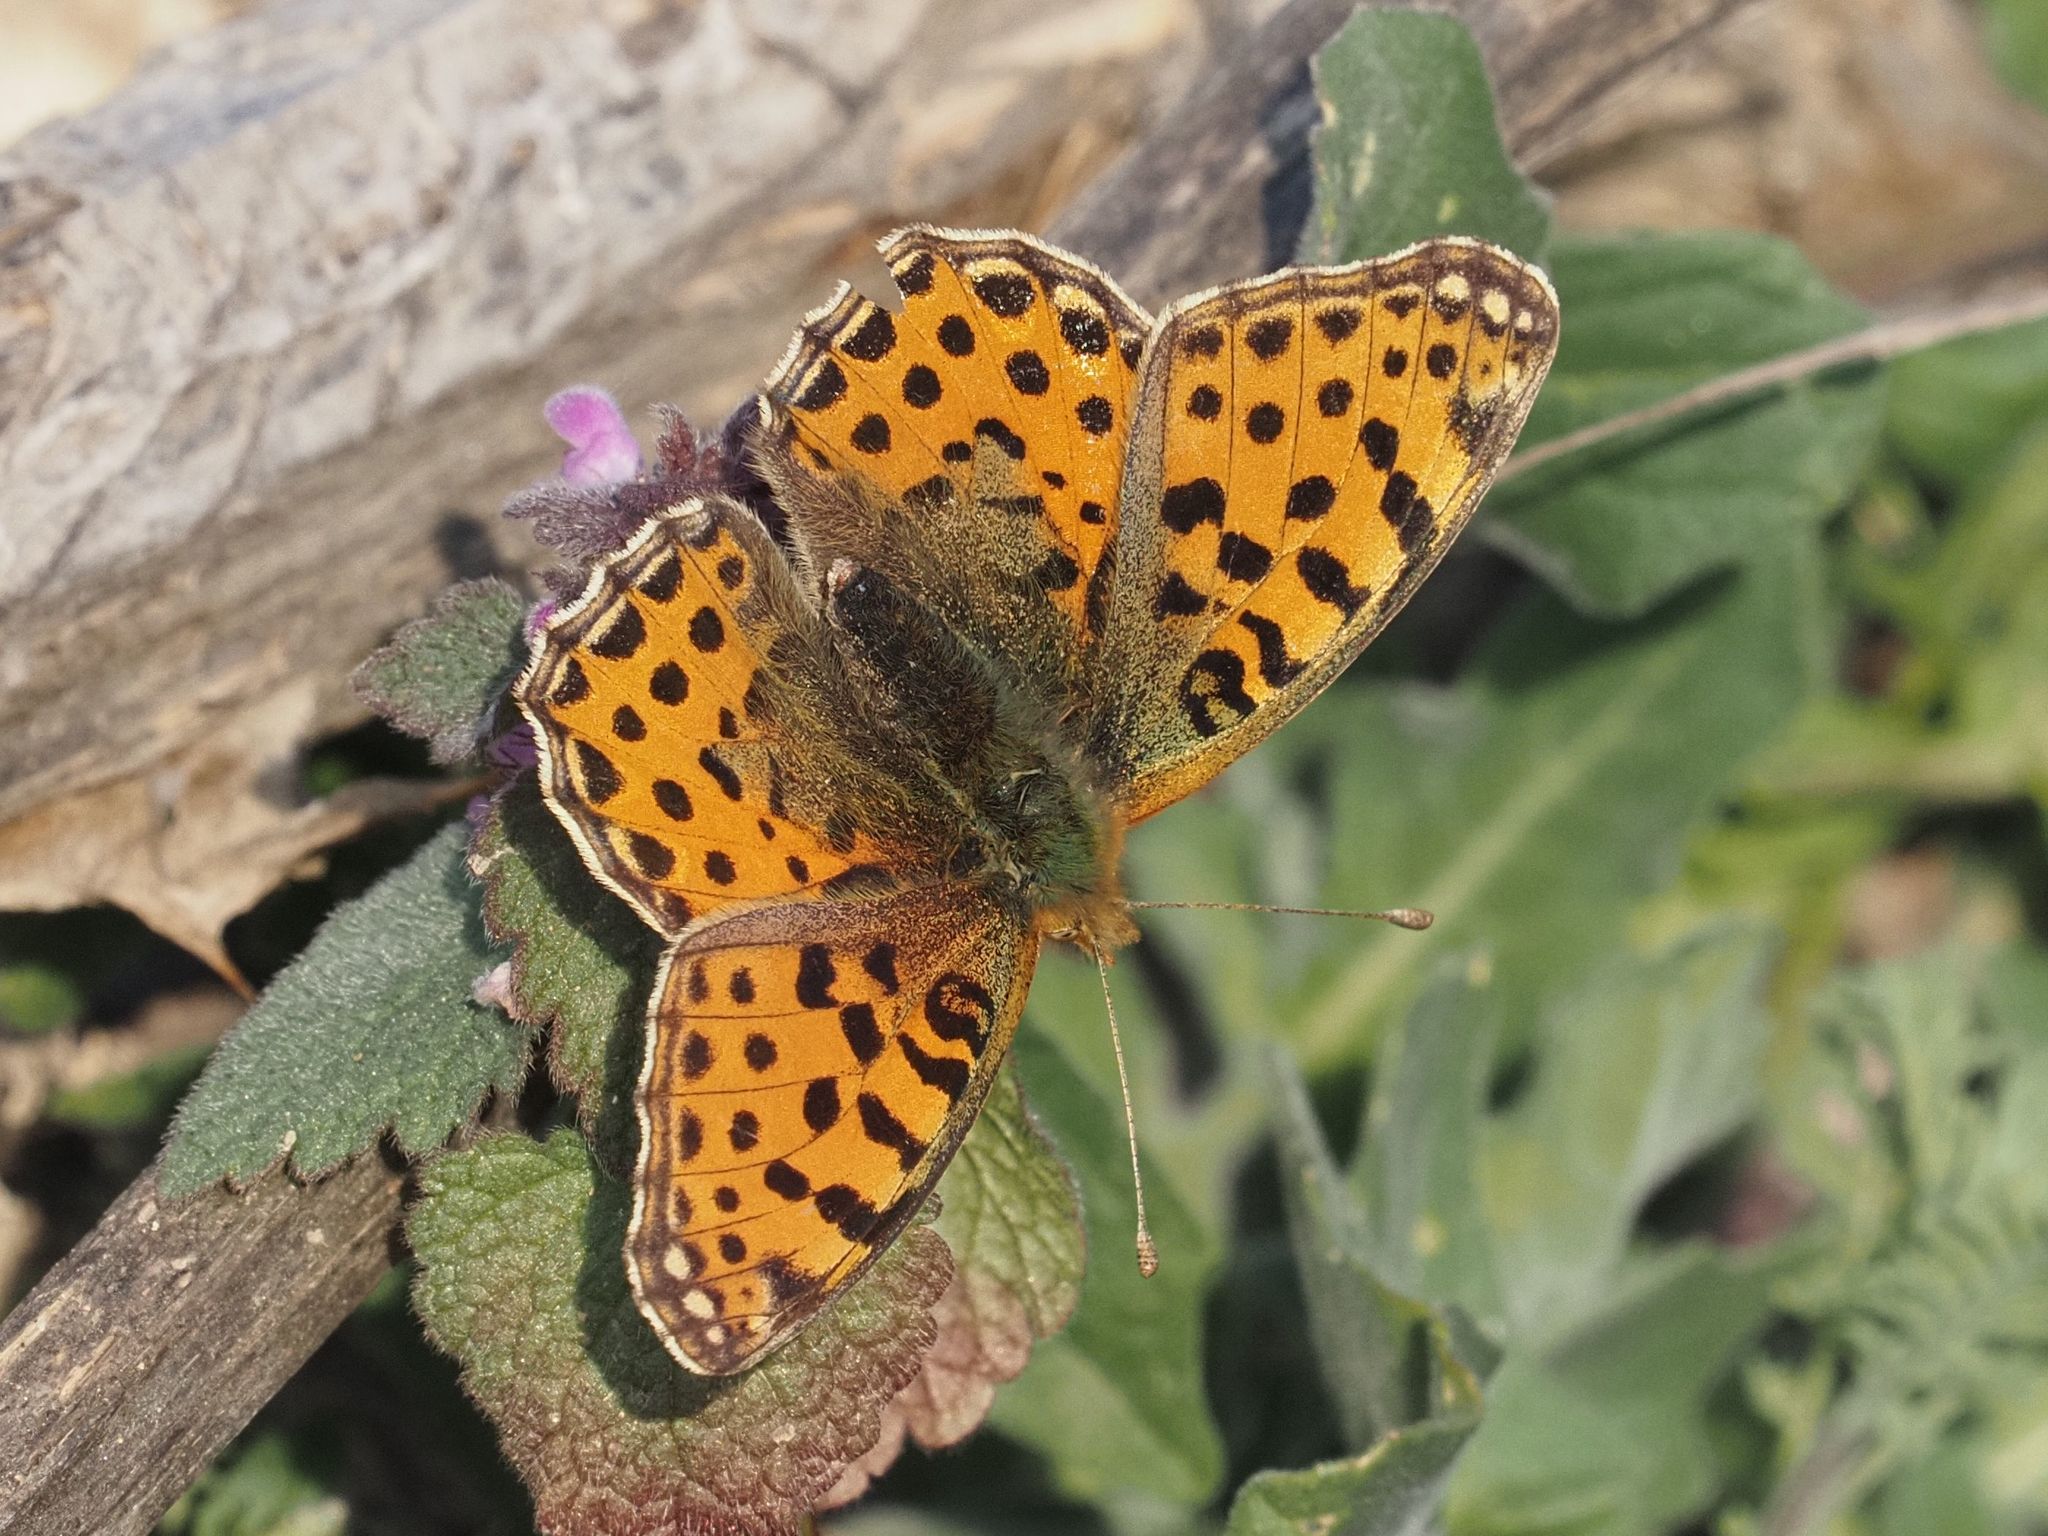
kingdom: Animalia
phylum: Arthropoda
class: Insecta
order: Lepidoptera
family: Nymphalidae
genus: Issoria
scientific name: Issoria lathonia
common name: Queen of spain fritillary
